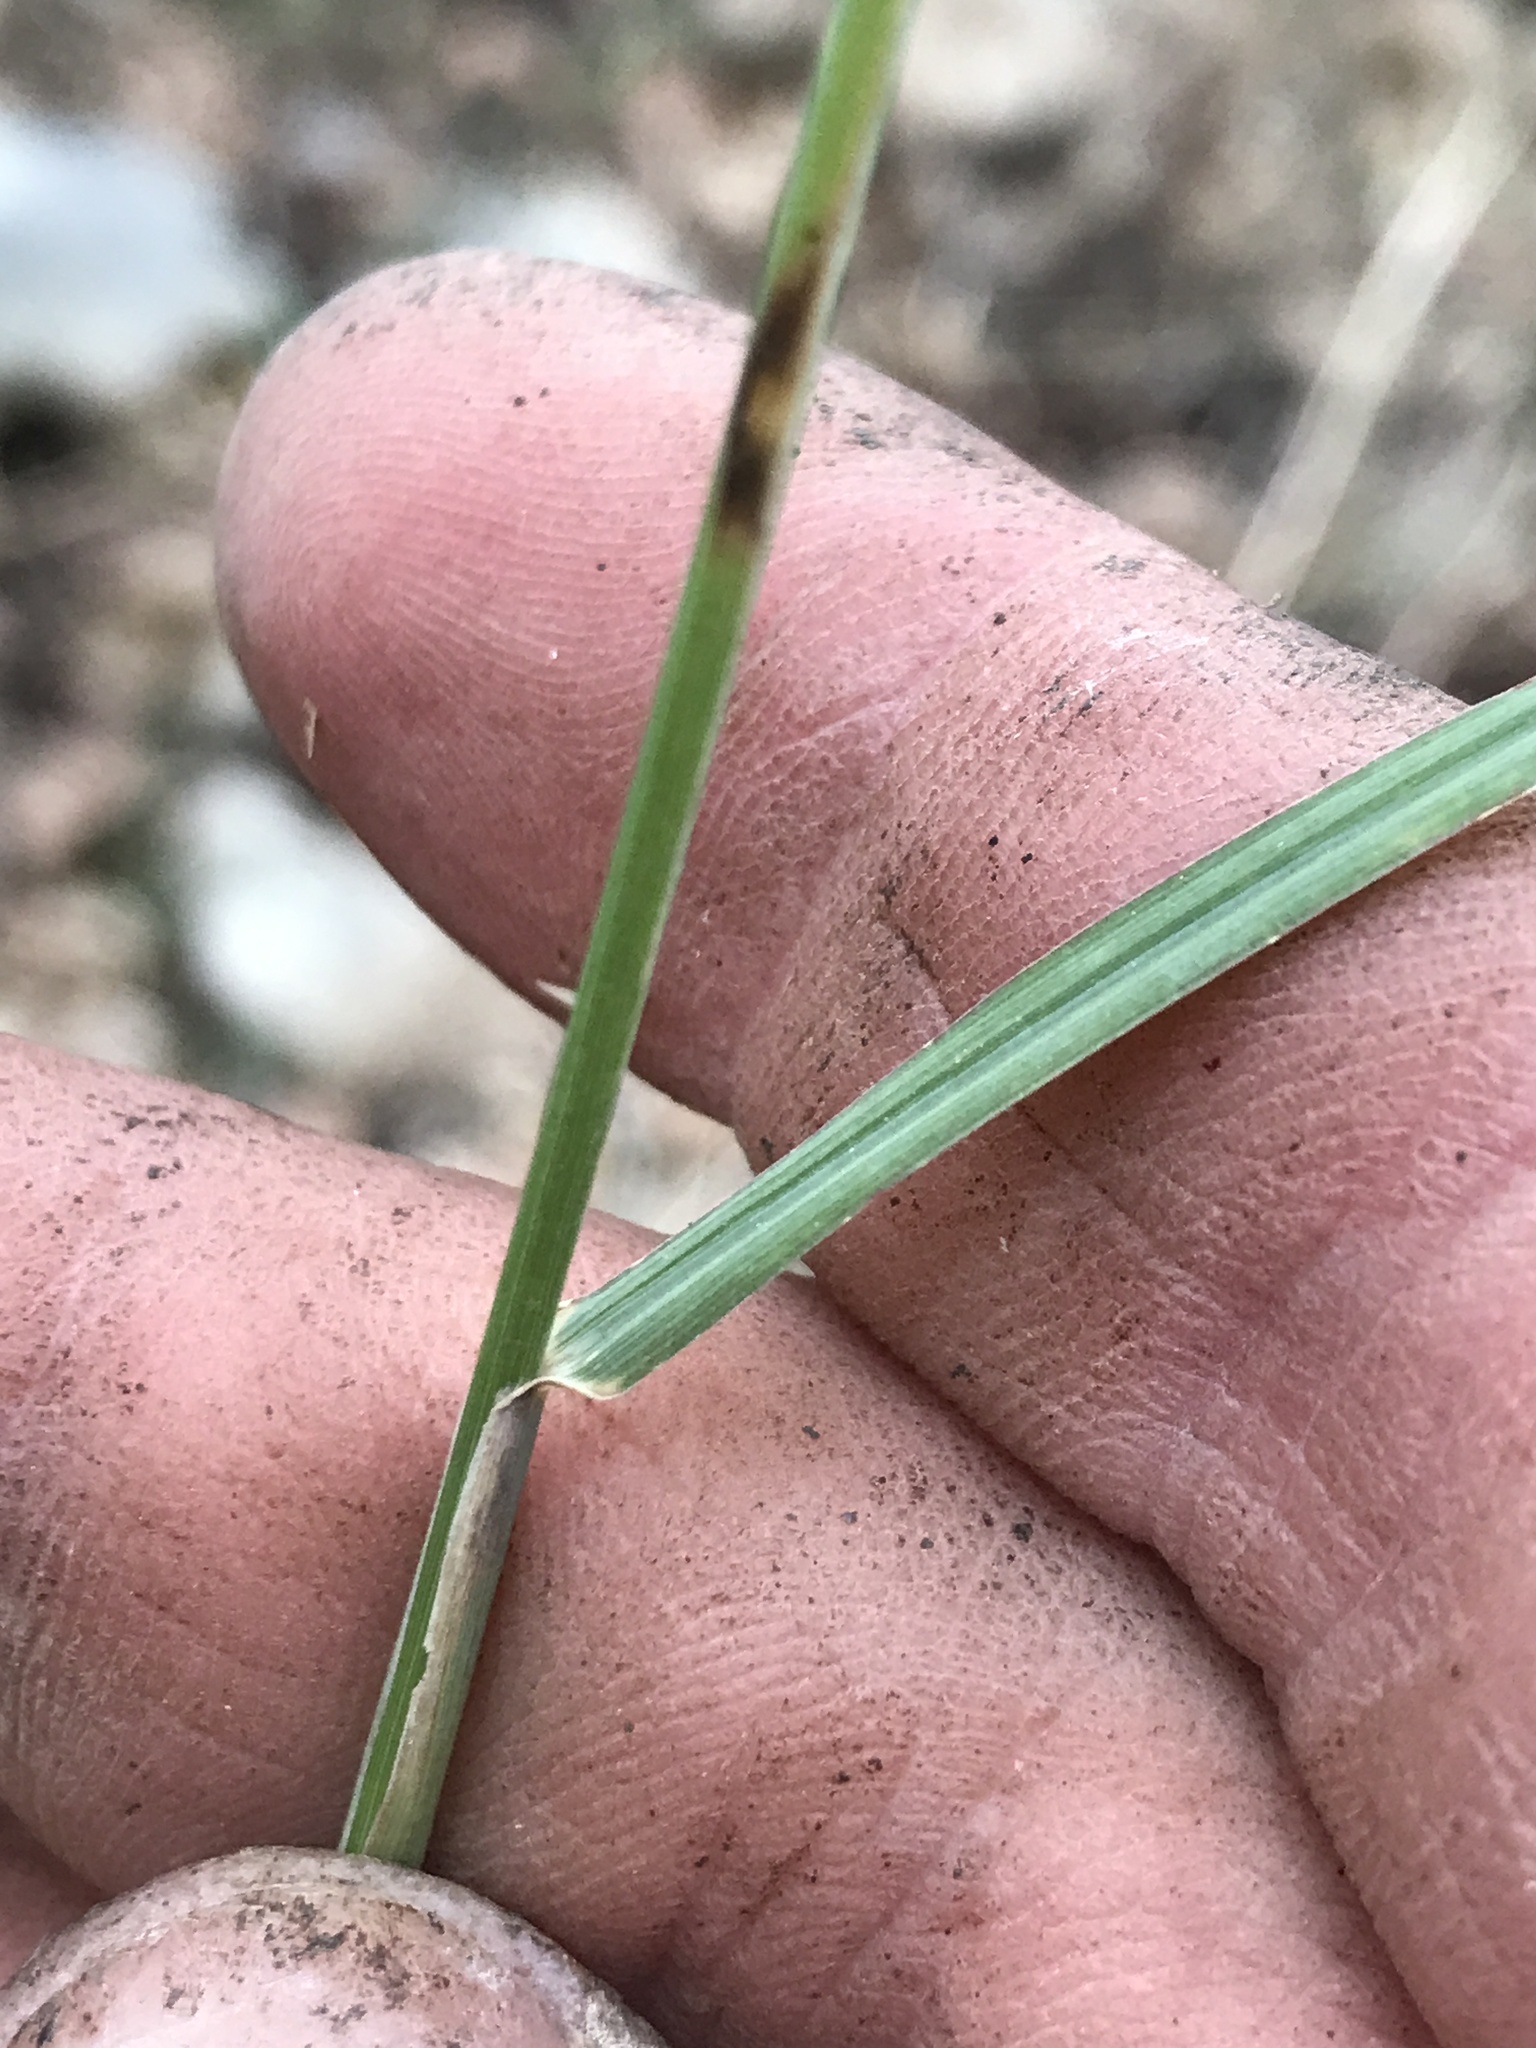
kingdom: Plantae
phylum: Tracheophyta
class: Liliopsida
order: Poales
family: Poaceae
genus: Disakisperma
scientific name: Disakisperma dubium
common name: Green sprangletop
